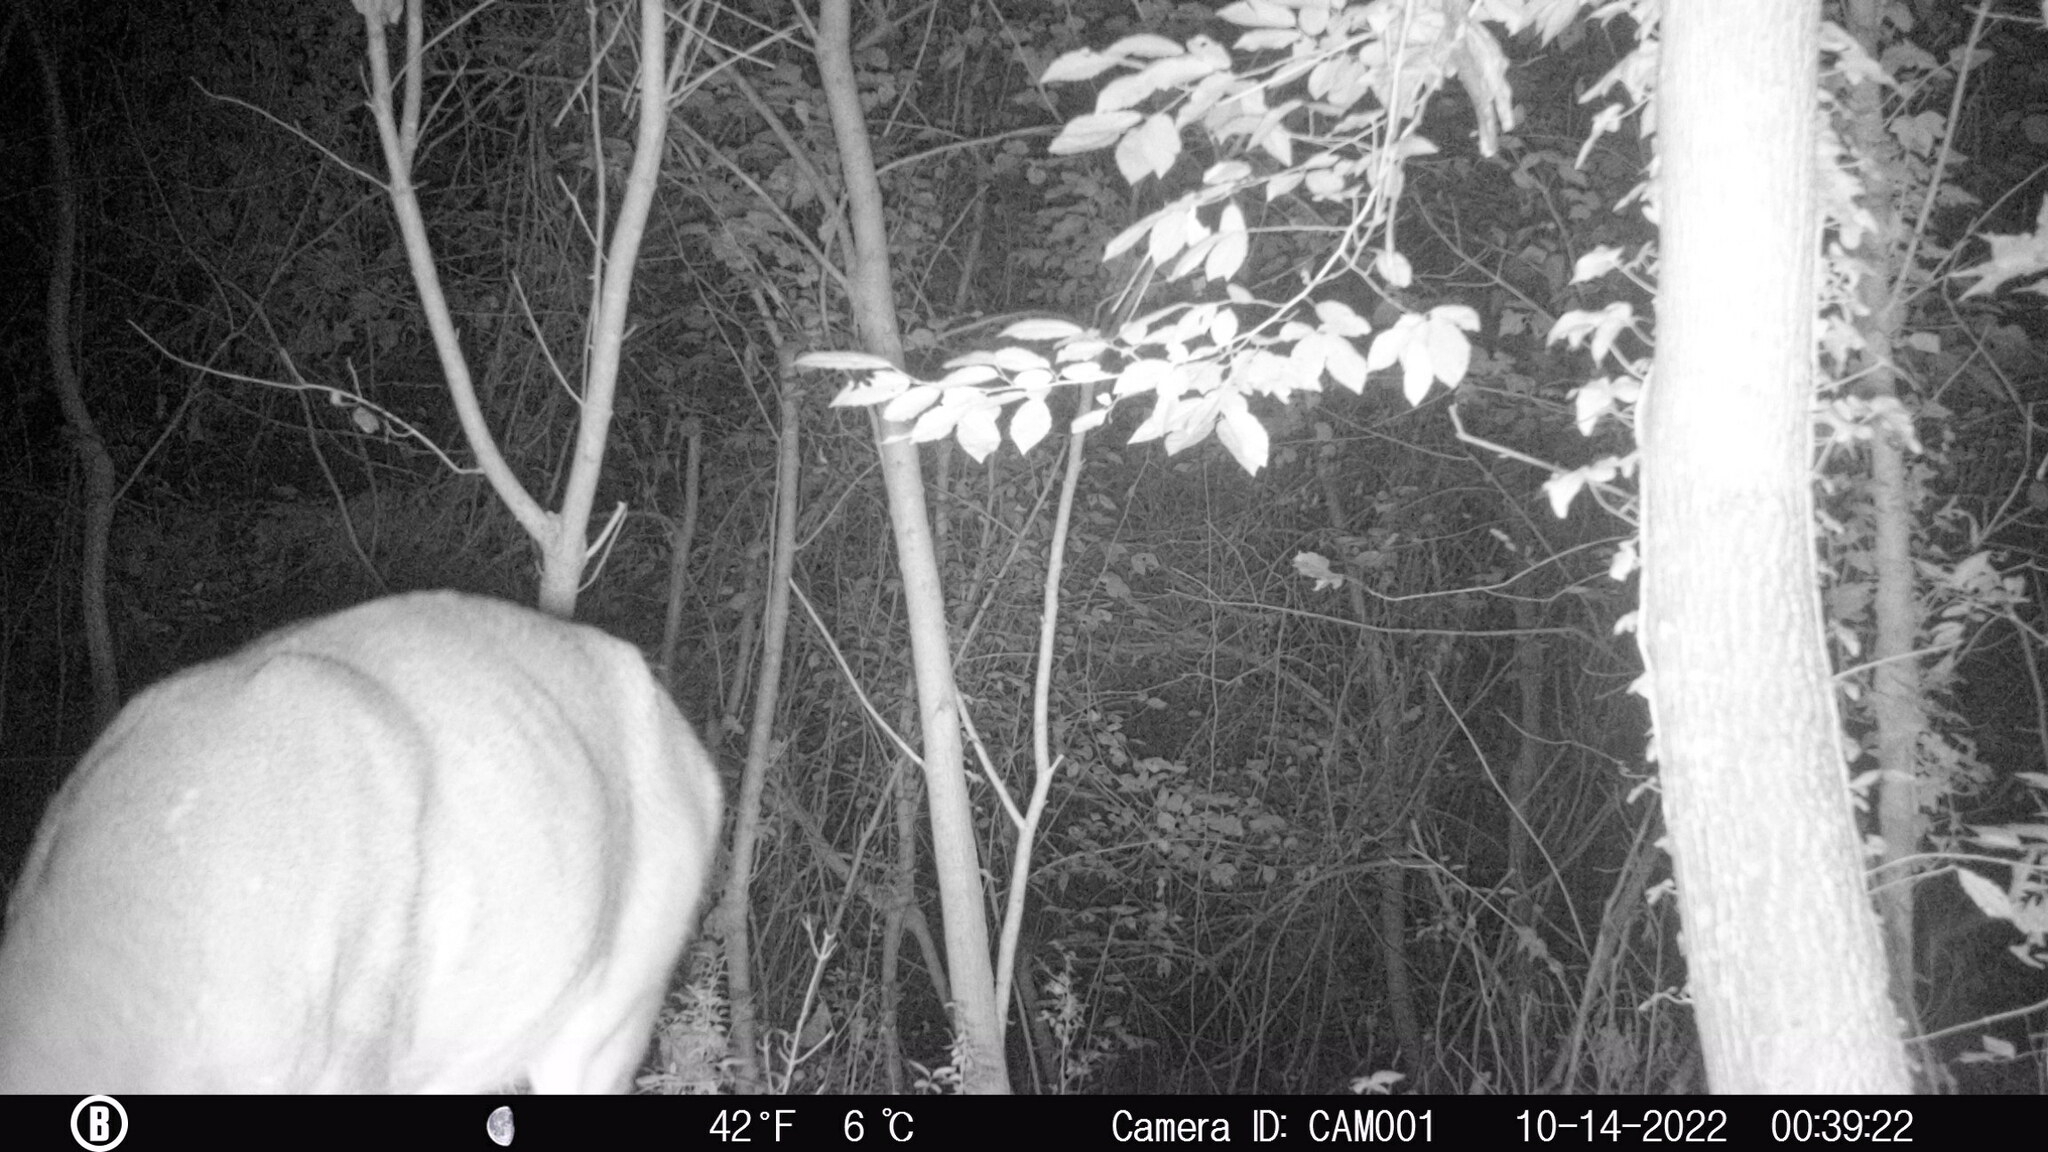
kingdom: Animalia
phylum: Chordata
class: Mammalia
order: Artiodactyla
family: Cervidae
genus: Odocoileus
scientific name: Odocoileus virginianus
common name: White-tailed deer
